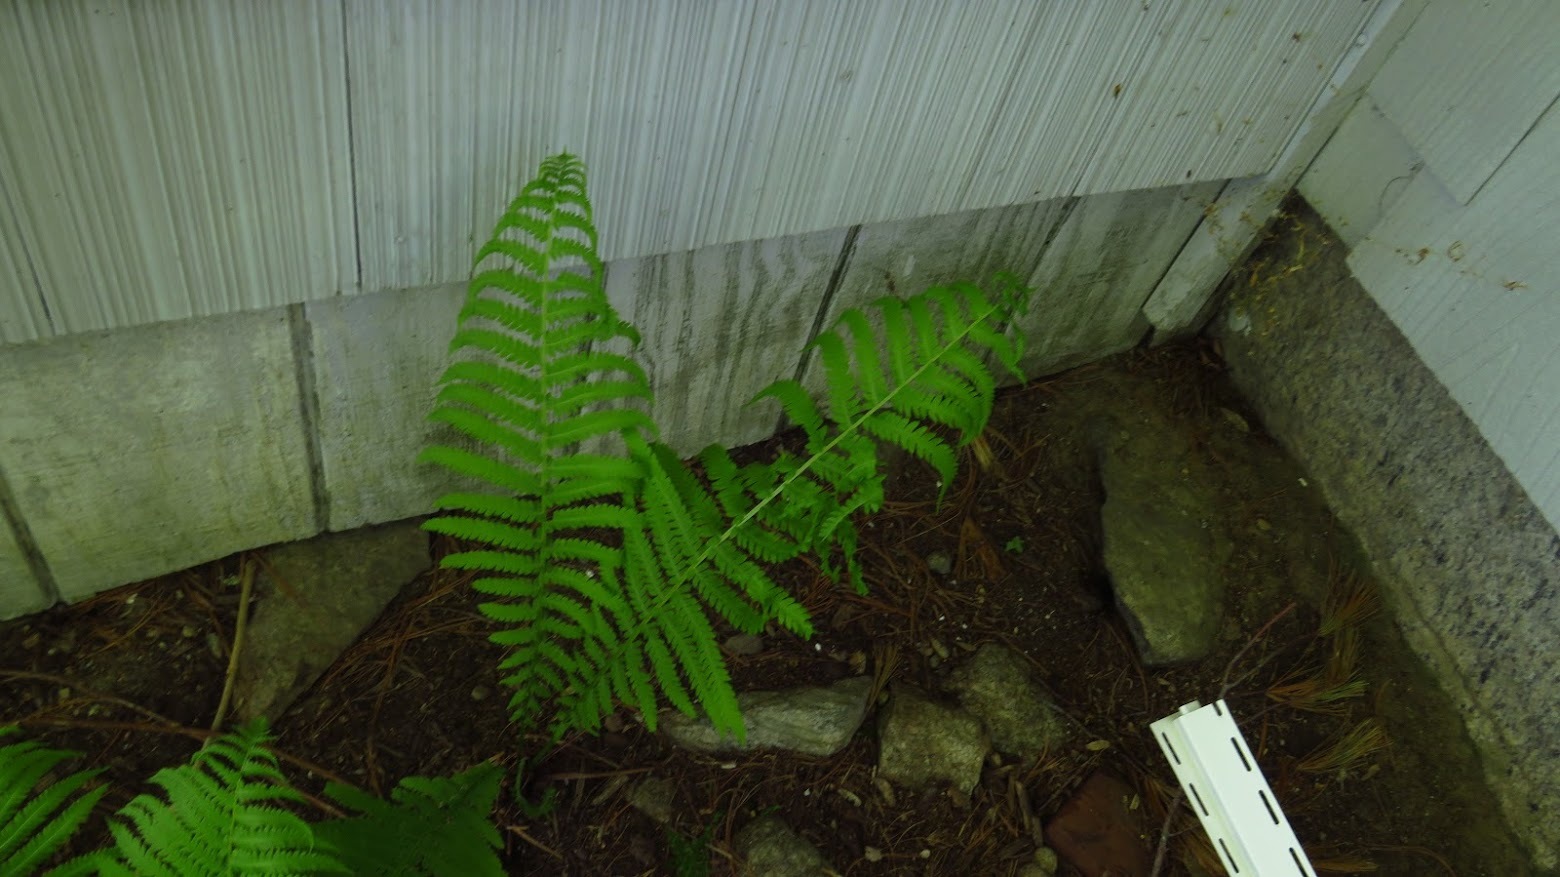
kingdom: Plantae
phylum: Tracheophyta
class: Polypodiopsida
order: Polypodiales
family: Onocleaceae
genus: Matteuccia
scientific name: Matteuccia struthiopteris
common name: Ostrich fern
